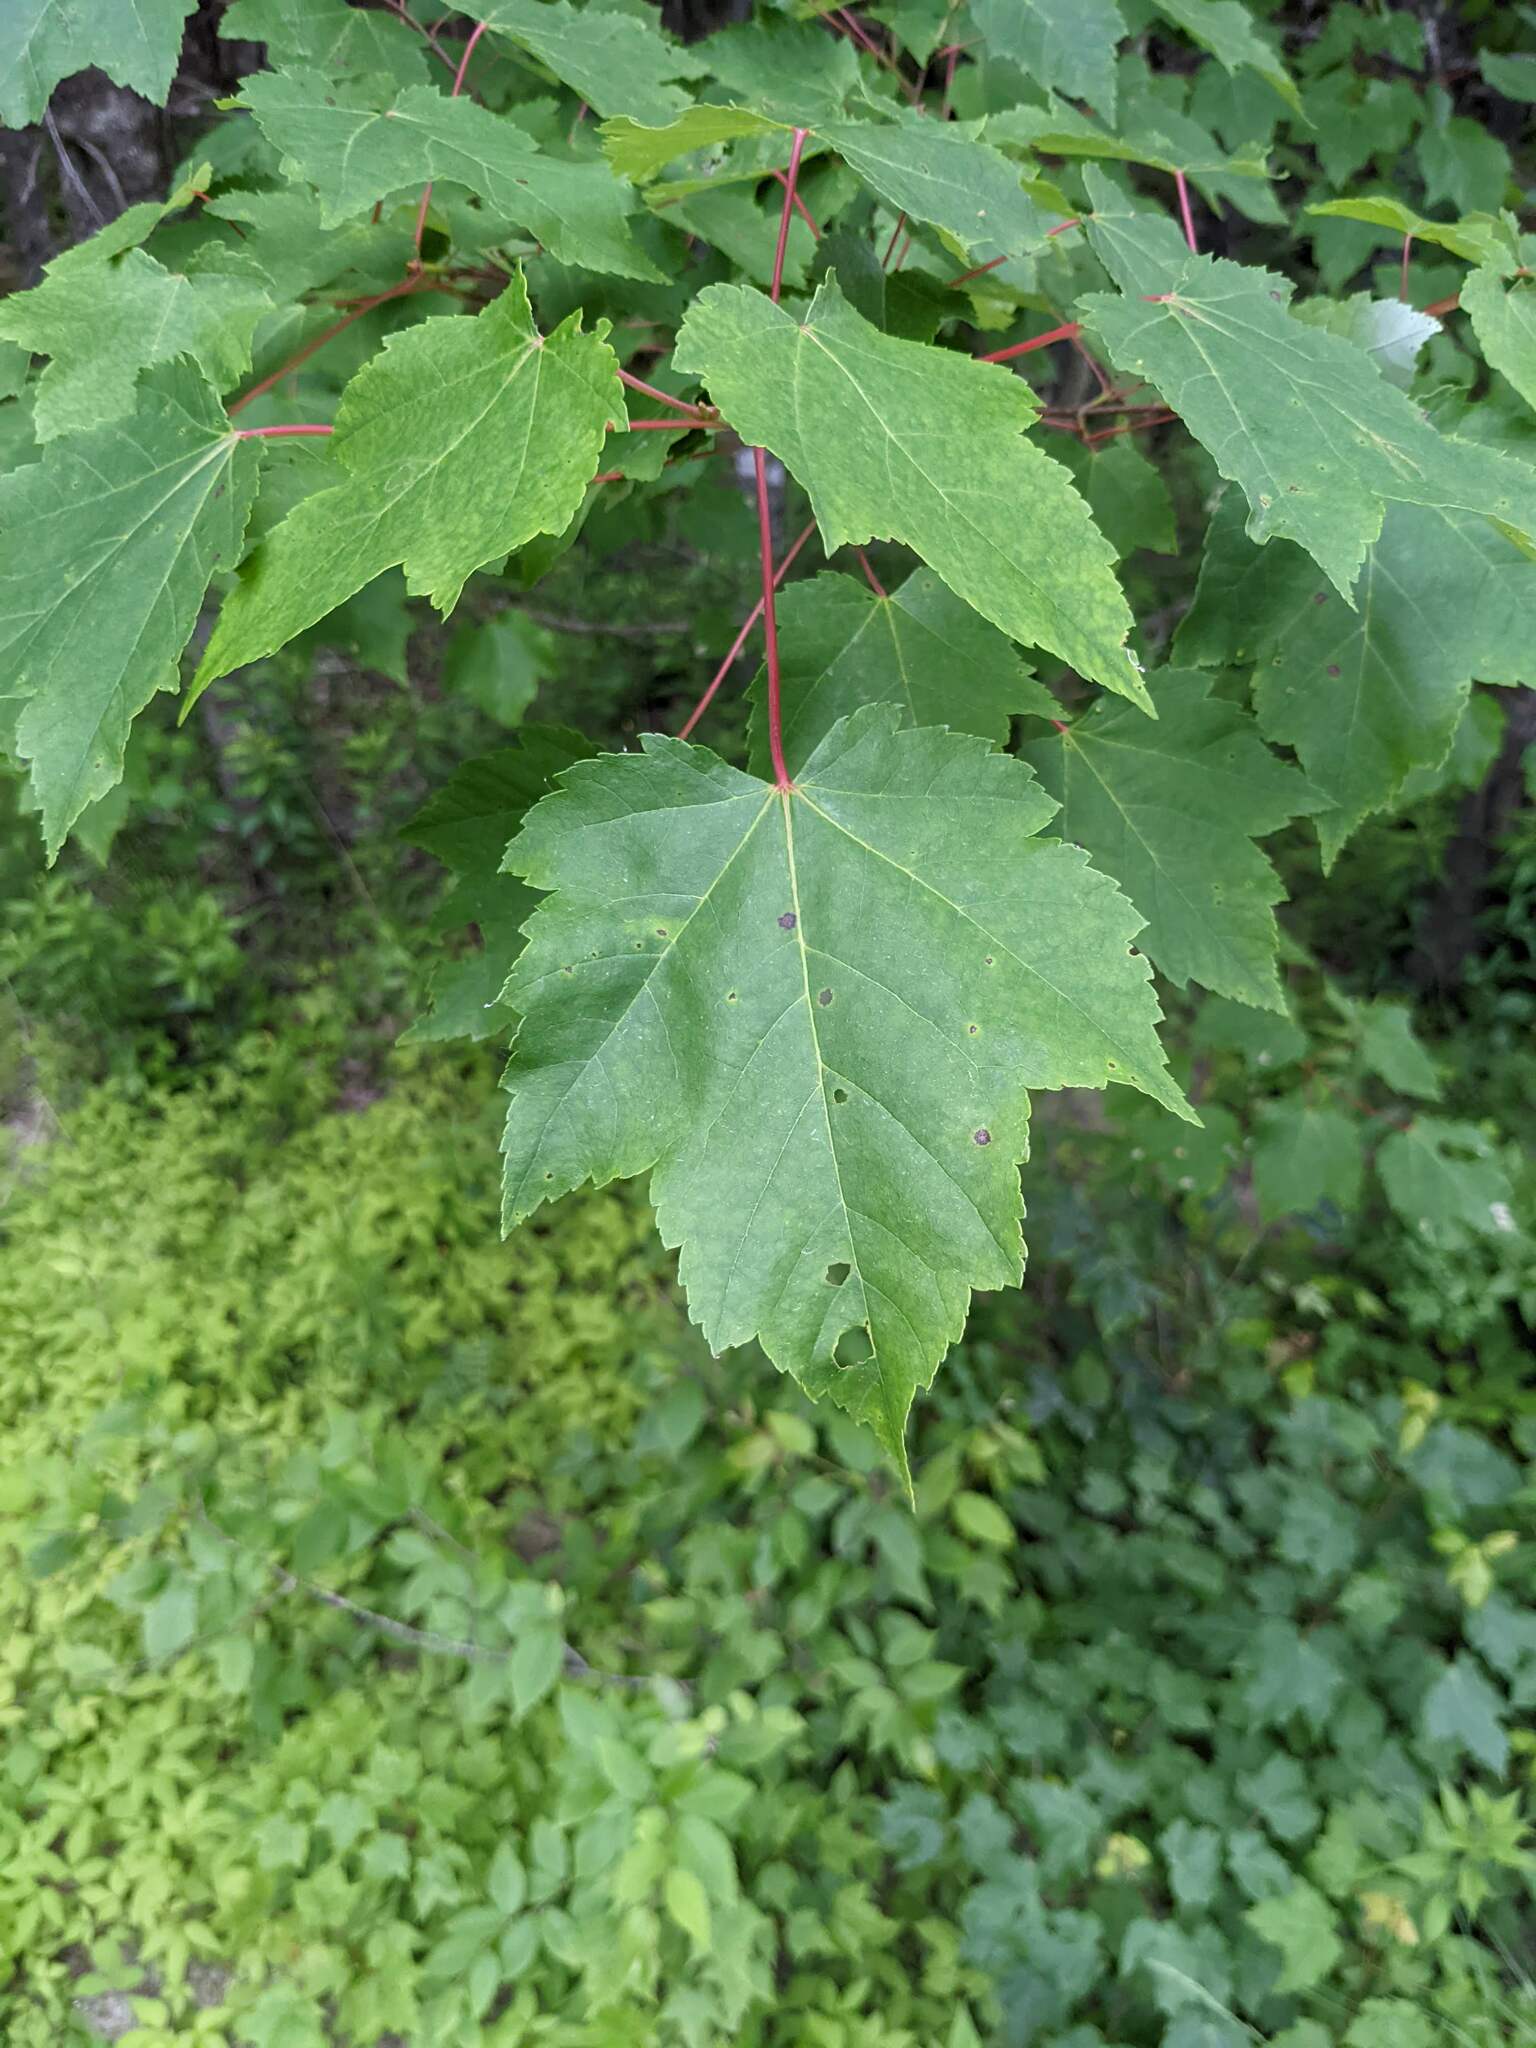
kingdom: Plantae
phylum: Tracheophyta
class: Magnoliopsida
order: Sapindales
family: Sapindaceae
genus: Acer
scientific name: Acer rubrum
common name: Red maple
